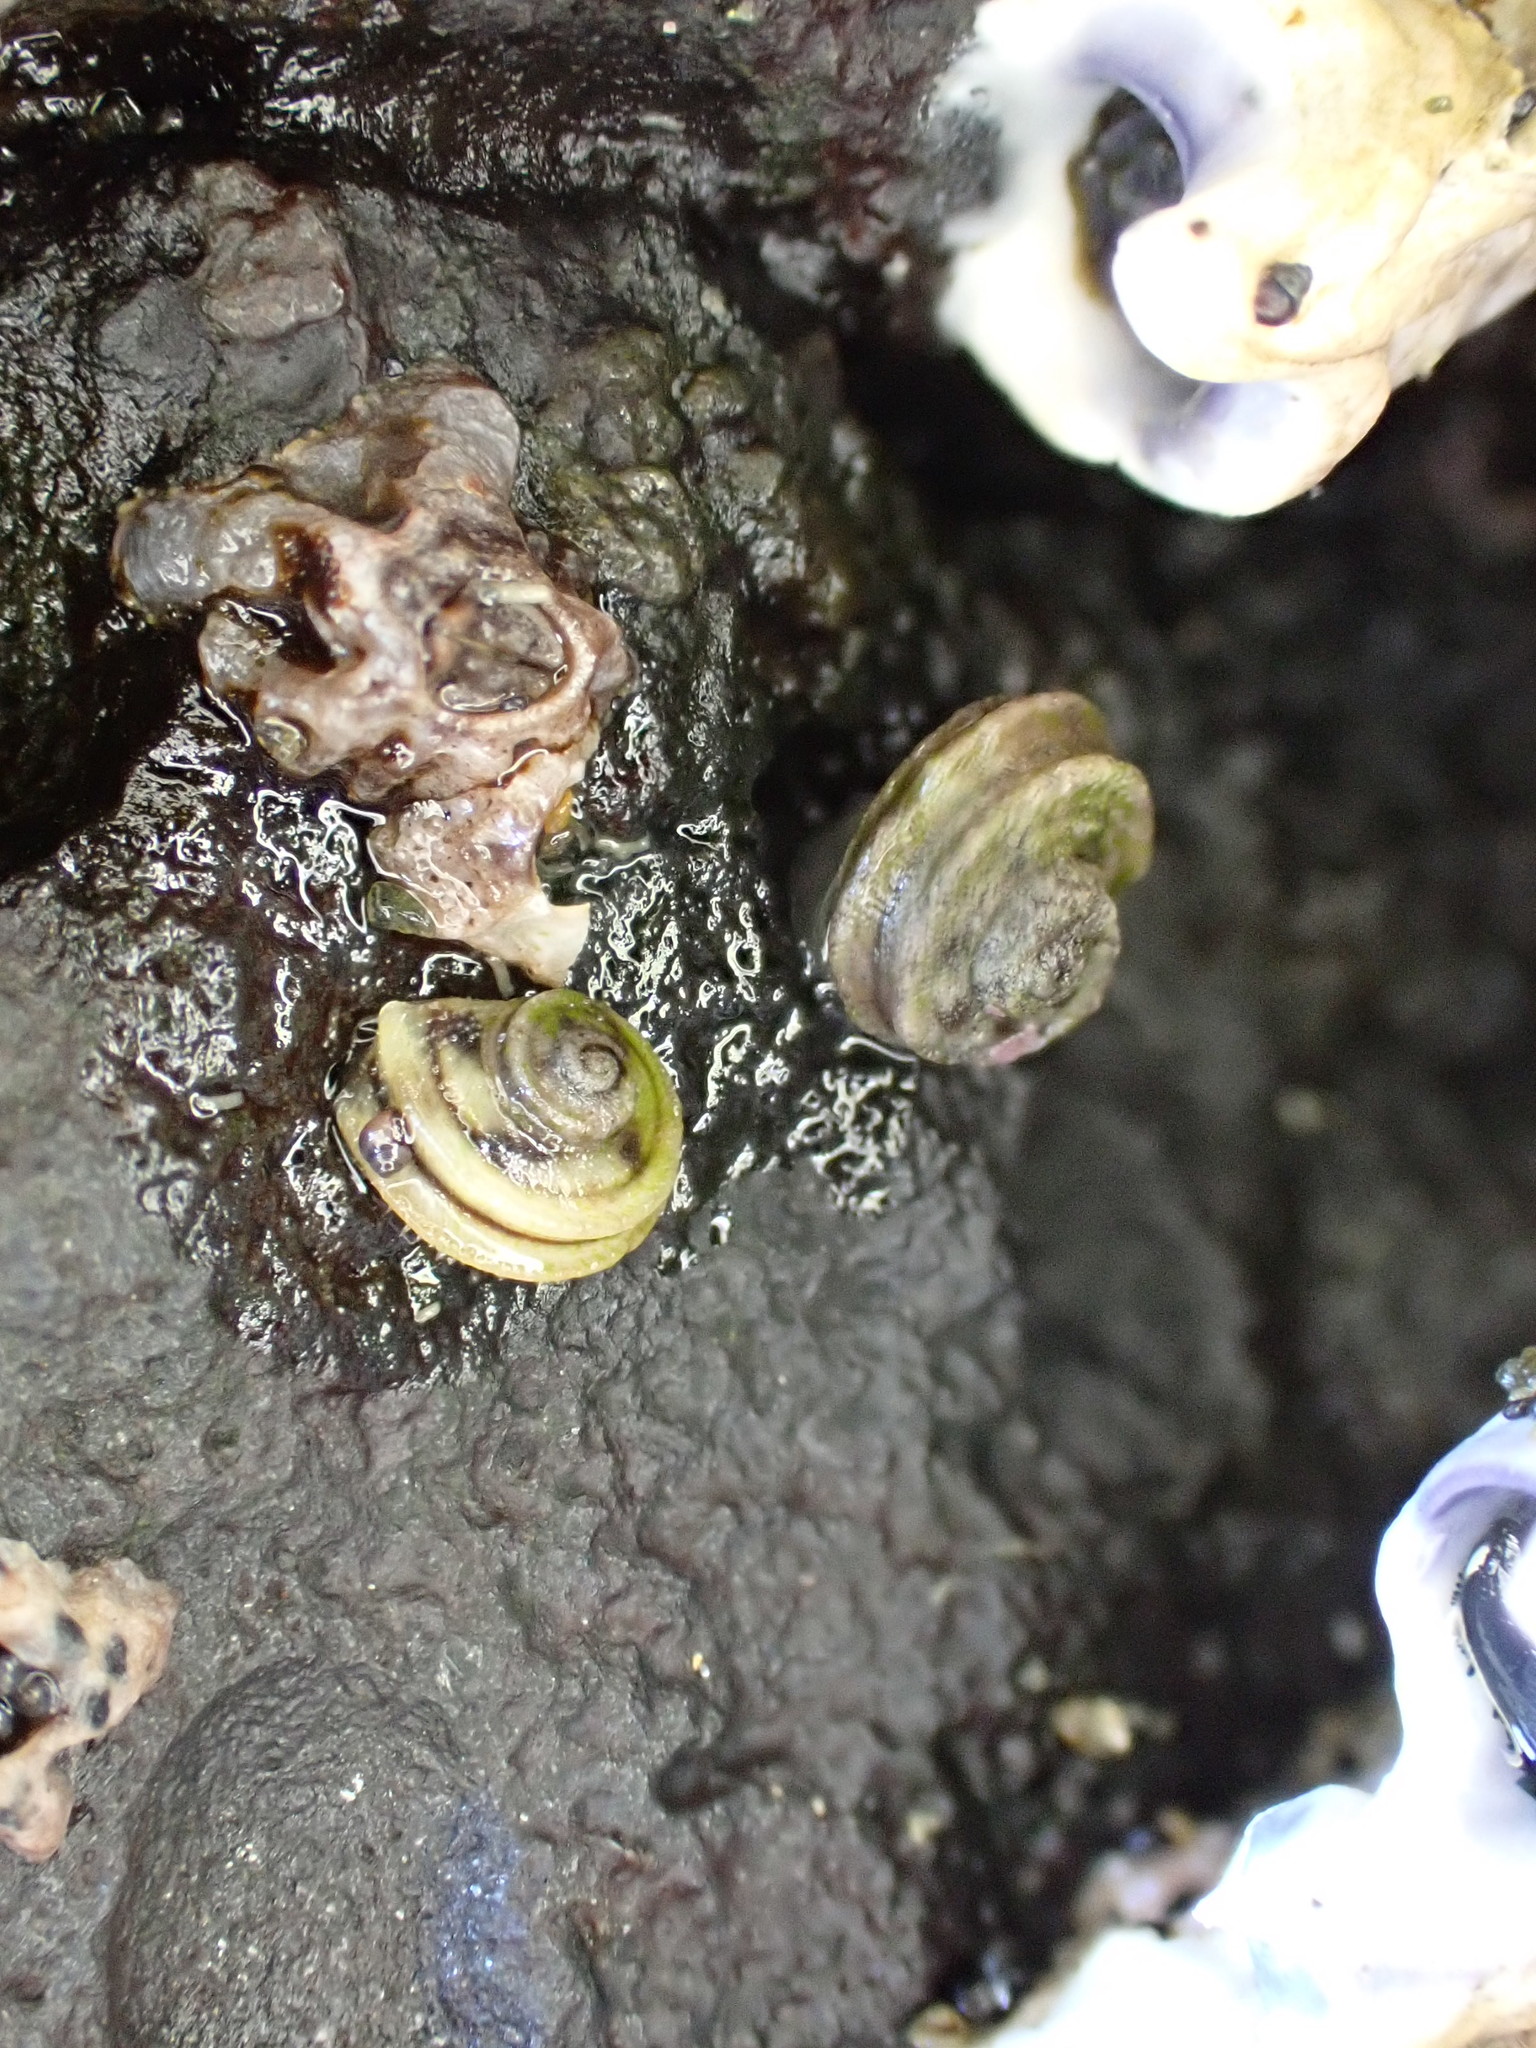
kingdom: Animalia
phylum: Mollusca
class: Gastropoda
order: Littorinimorpha
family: Littorinidae
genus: Risellopsis
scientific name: Risellopsis varia
